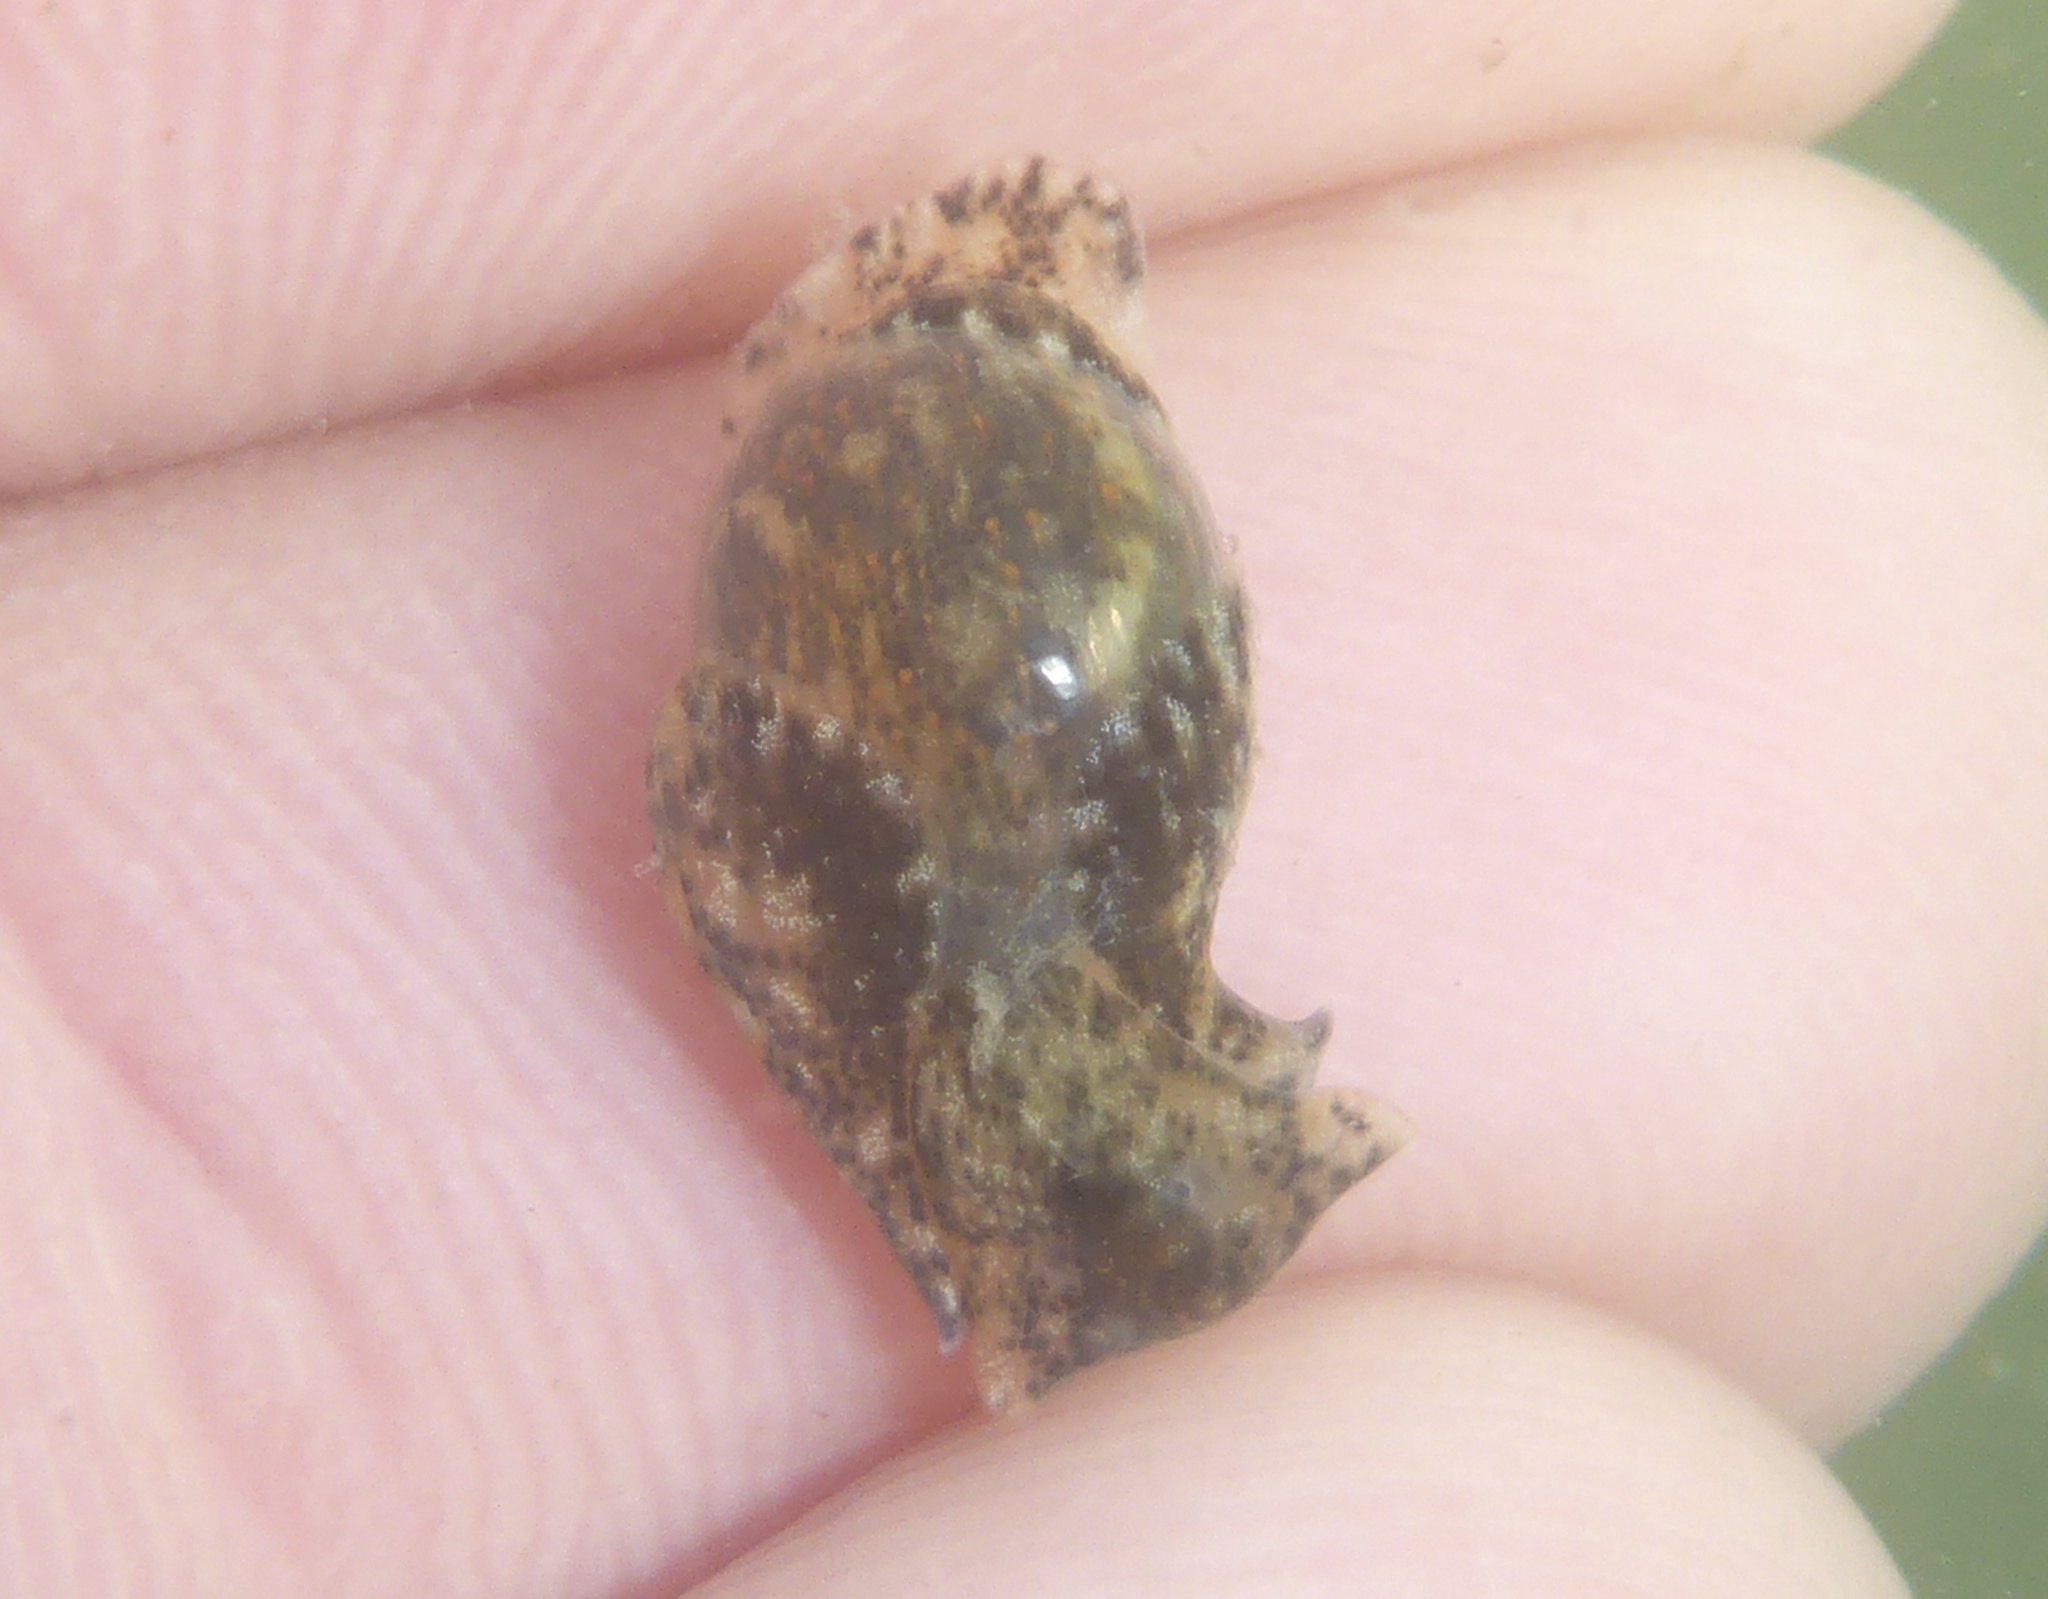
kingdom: Animalia
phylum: Mollusca
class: Gastropoda
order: Cephalaspidea
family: Haminoeidae
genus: Haloa
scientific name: Haloa japonica
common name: Japanese bubble snail
